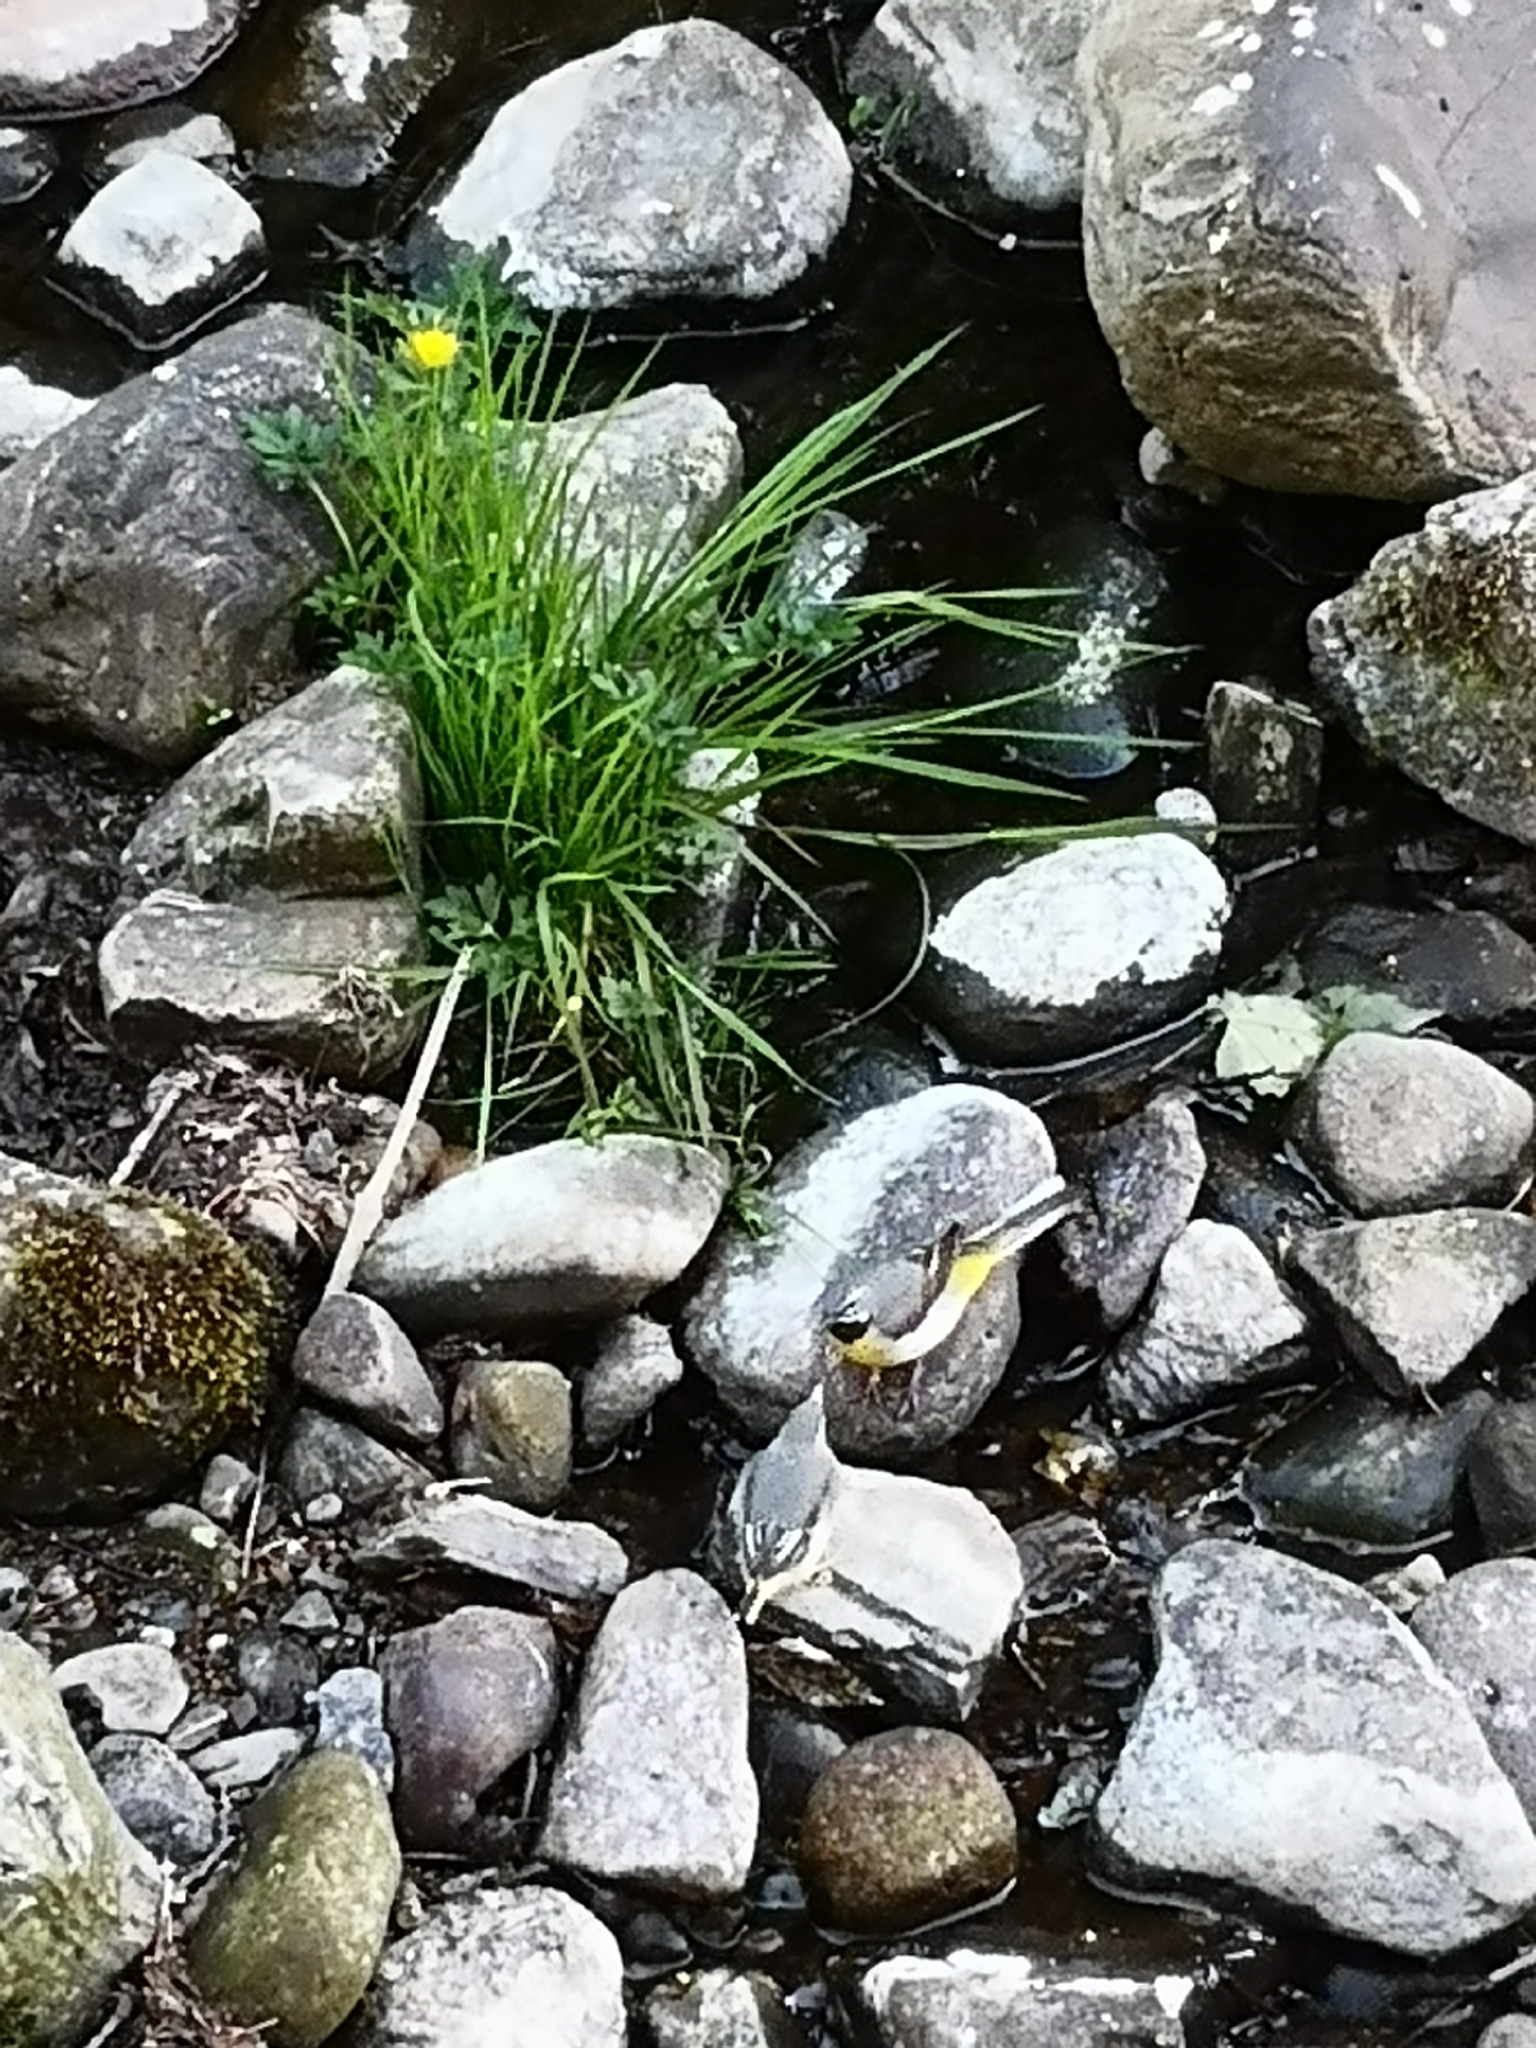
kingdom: Animalia
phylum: Chordata
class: Aves
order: Passeriformes
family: Motacillidae
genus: Motacilla
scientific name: Motacilla cinerea
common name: Grey wagtail
